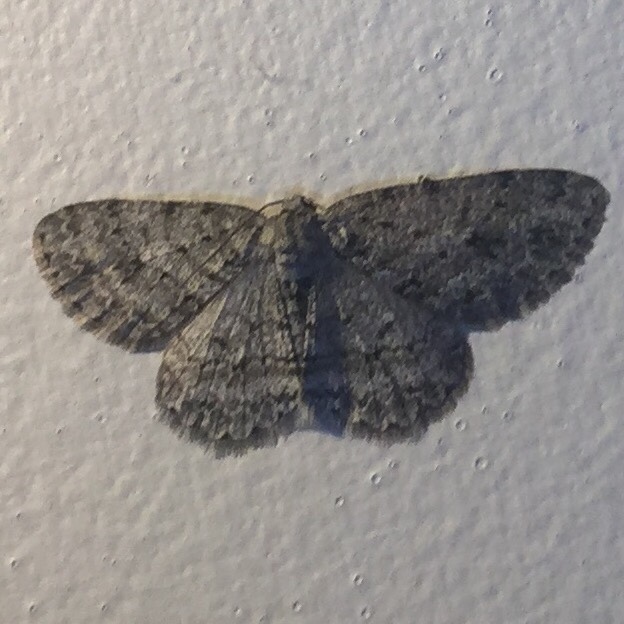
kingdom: Animalia
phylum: Arthropoda
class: Insecta
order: Lepidoptera
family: Geometridae
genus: Ectropis
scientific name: Ectropis crepuscularia
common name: Engrailed
